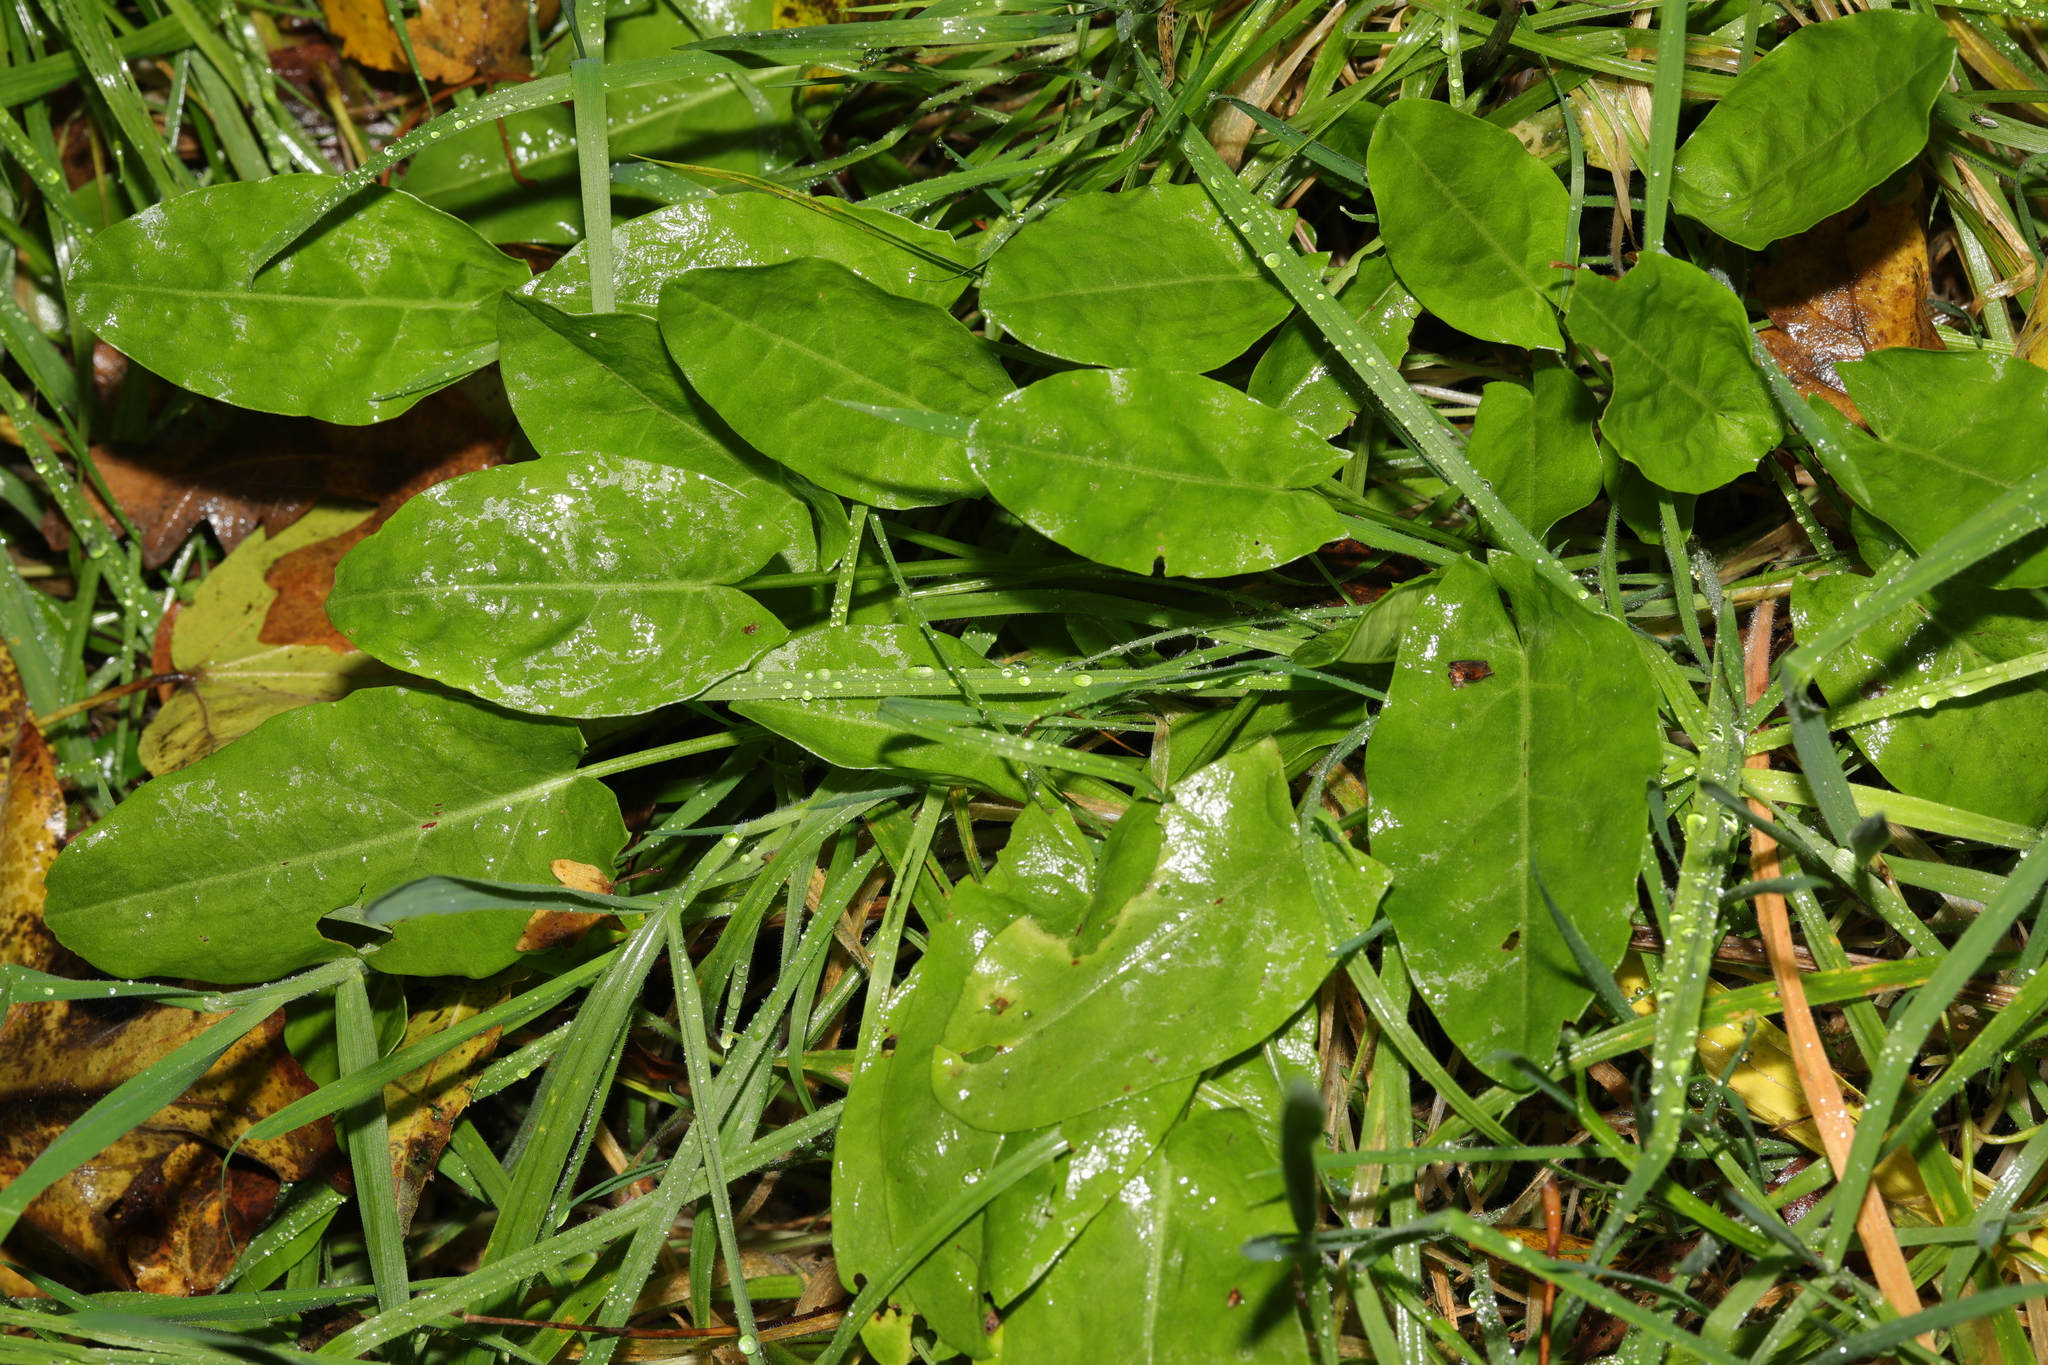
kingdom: Plantae
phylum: Tracheophyta
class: Magnoliopsida
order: Caryophyllales
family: Polygonaceae
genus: Rumex
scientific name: Rumex acetosa
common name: Garden sorrel
